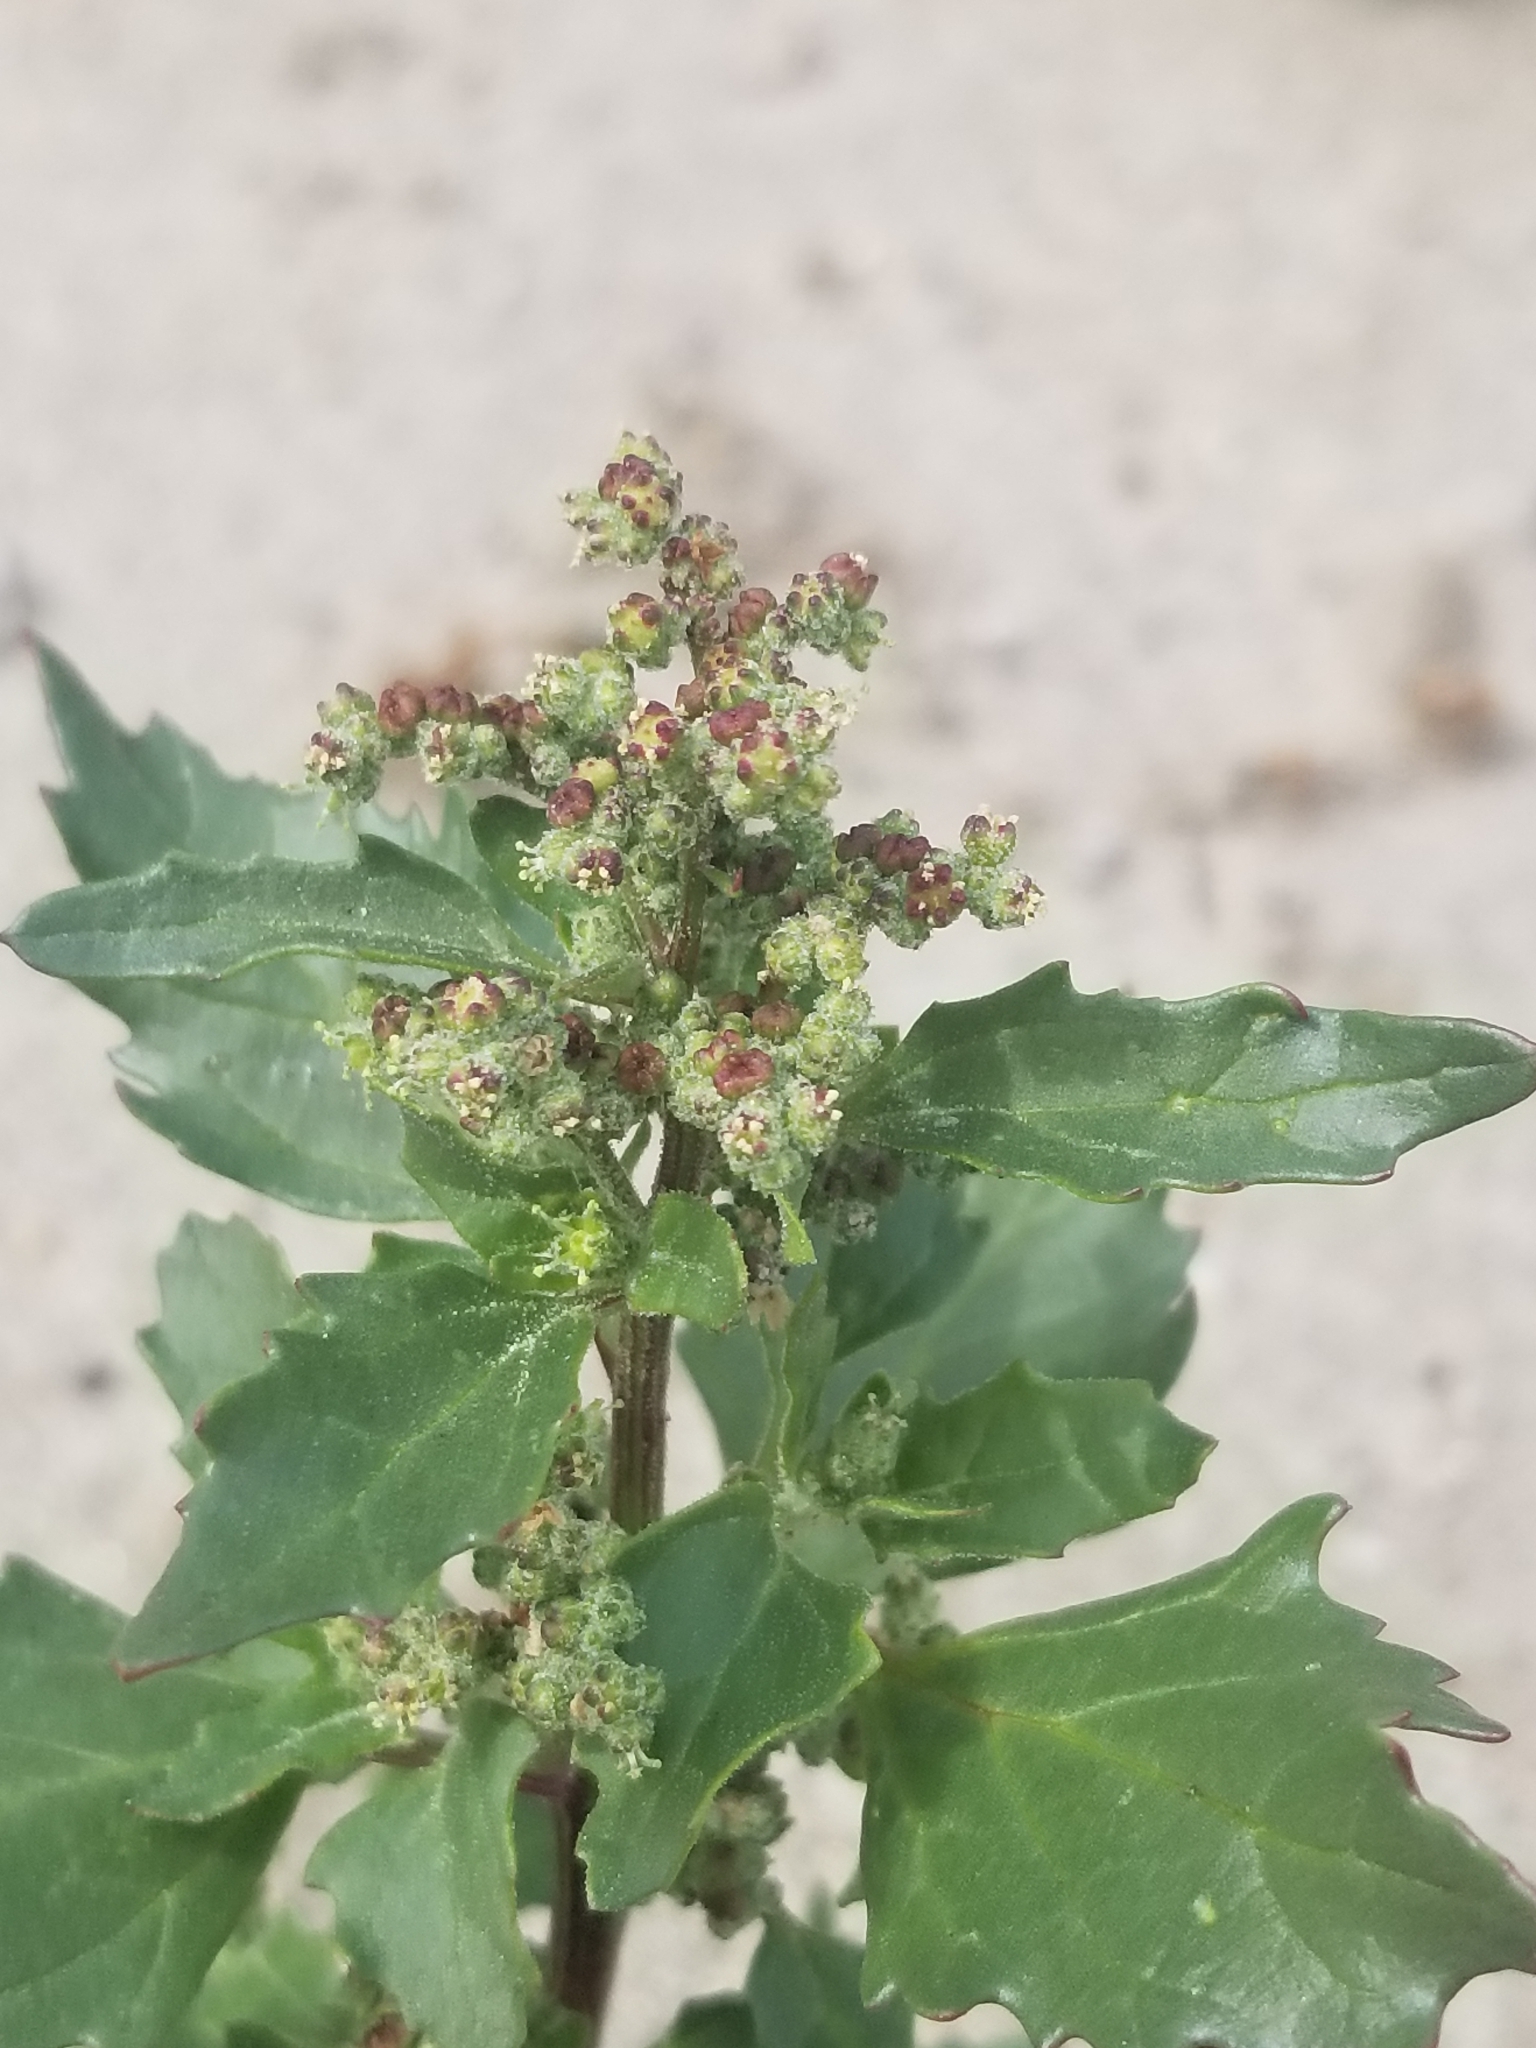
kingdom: Plantae
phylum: Tracheophyta
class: Magnoliopsida
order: Caryophyllales
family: Amaranthaceae
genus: Chenopodiastrum
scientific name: Chenopodiastrum murale
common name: Sowbane
